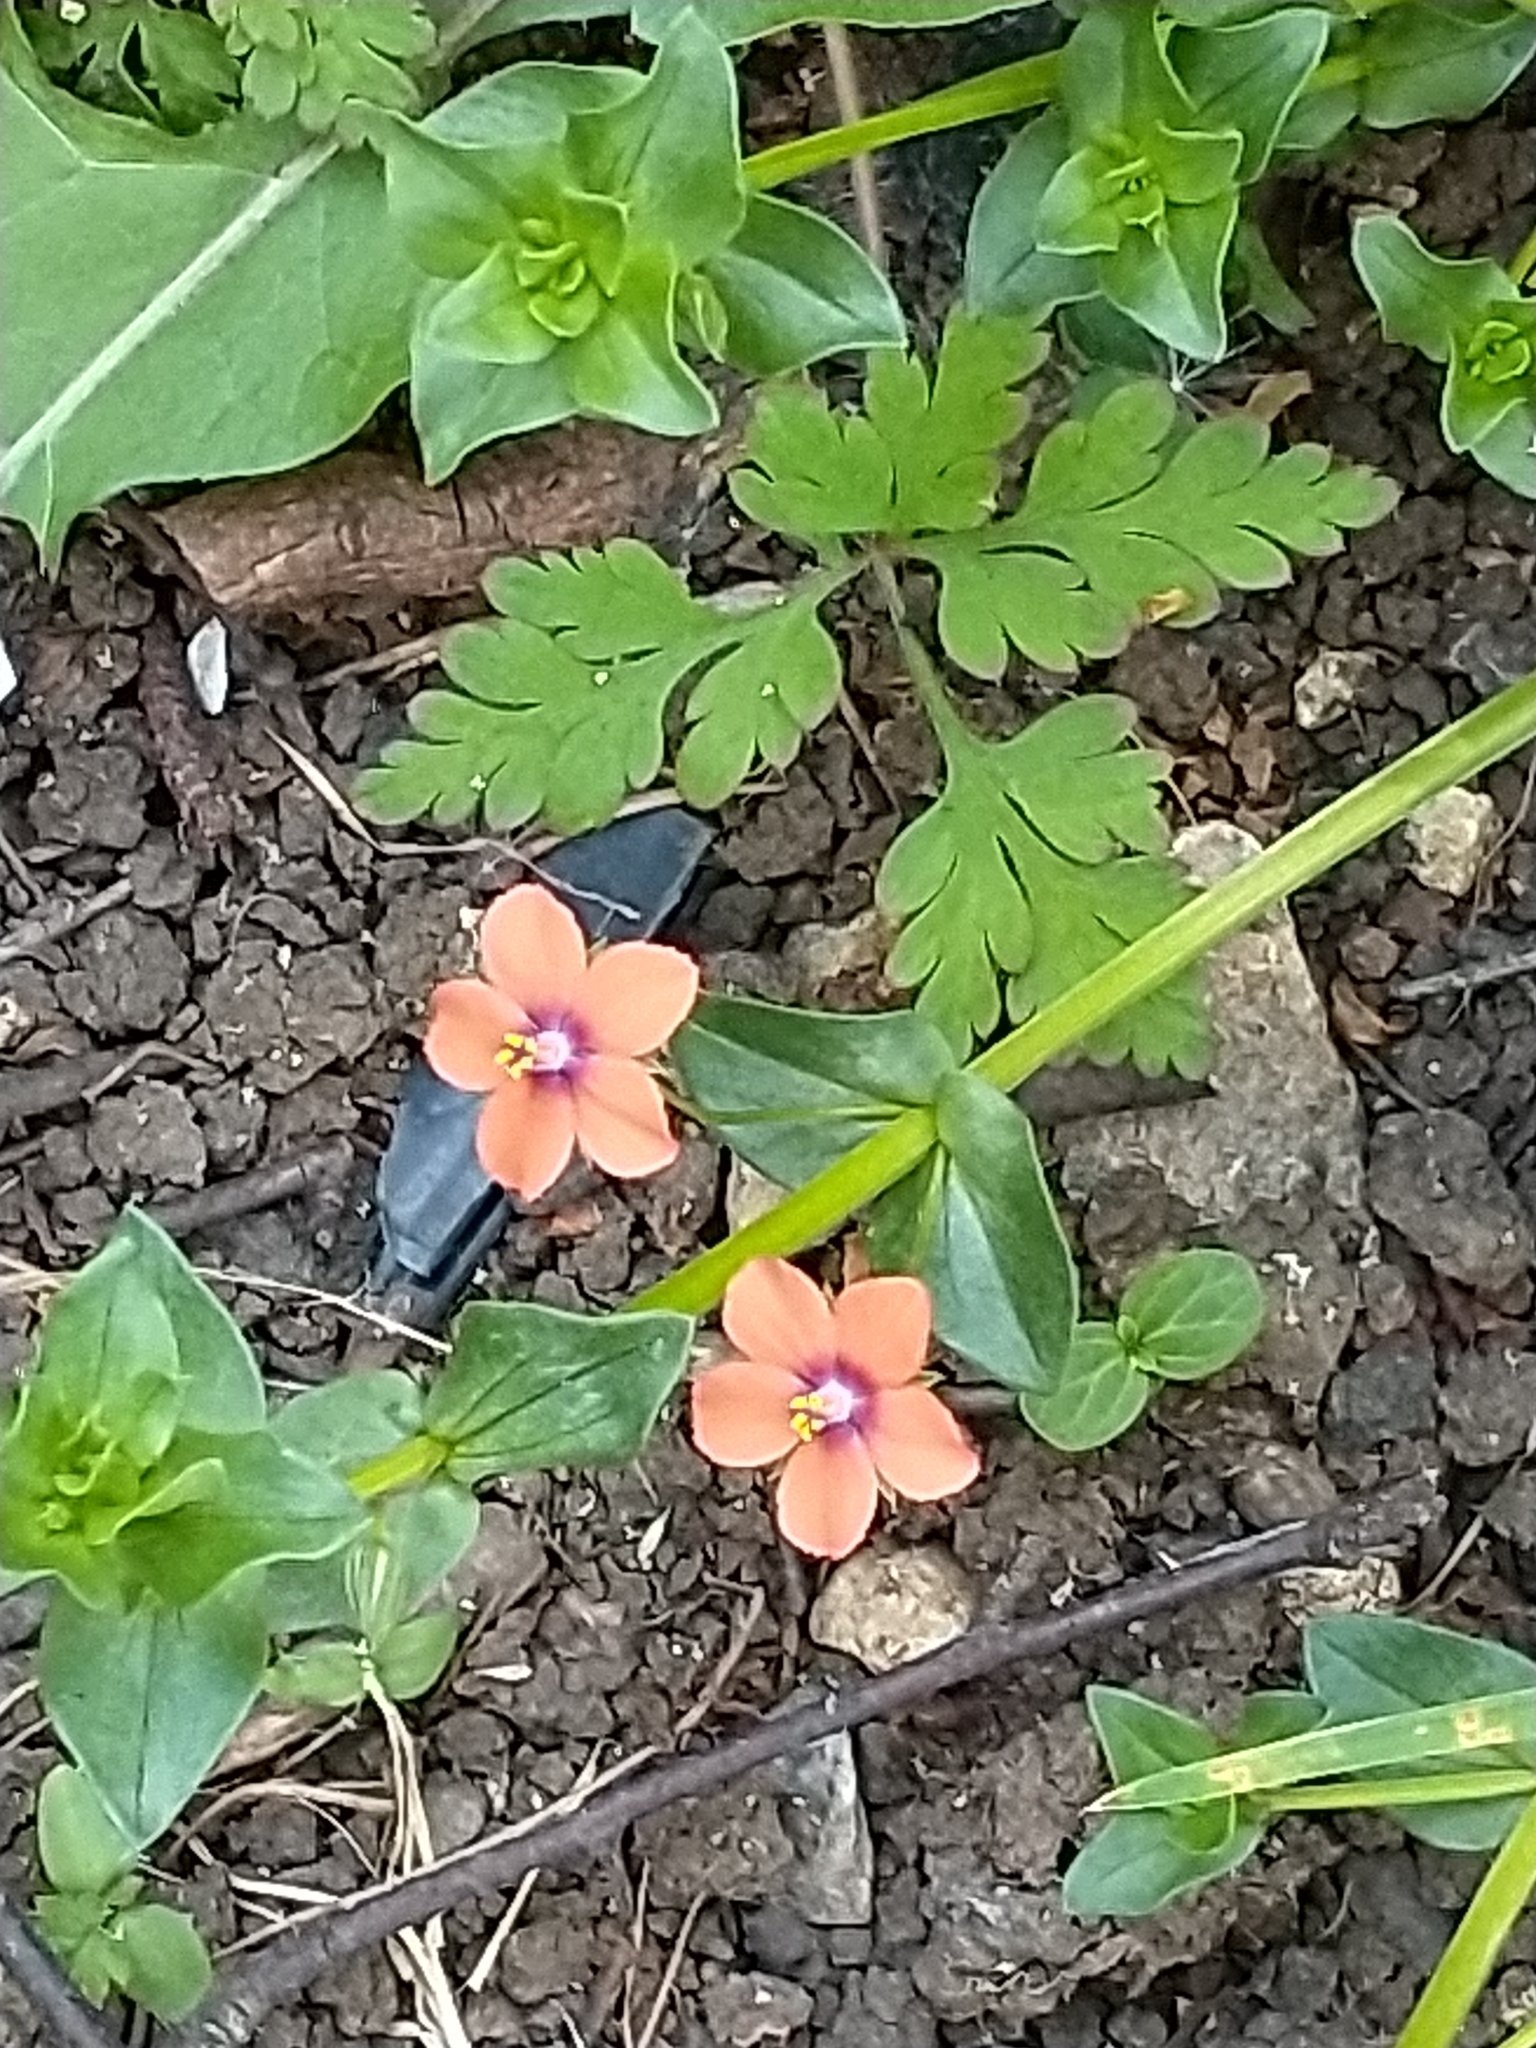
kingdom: Plantae
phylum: Tracheophyta
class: Magnoliopsida
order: Ericales
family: Primulaceae
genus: Lysimachia
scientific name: Lysimachia arvensis
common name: Scarlet pimpernel
